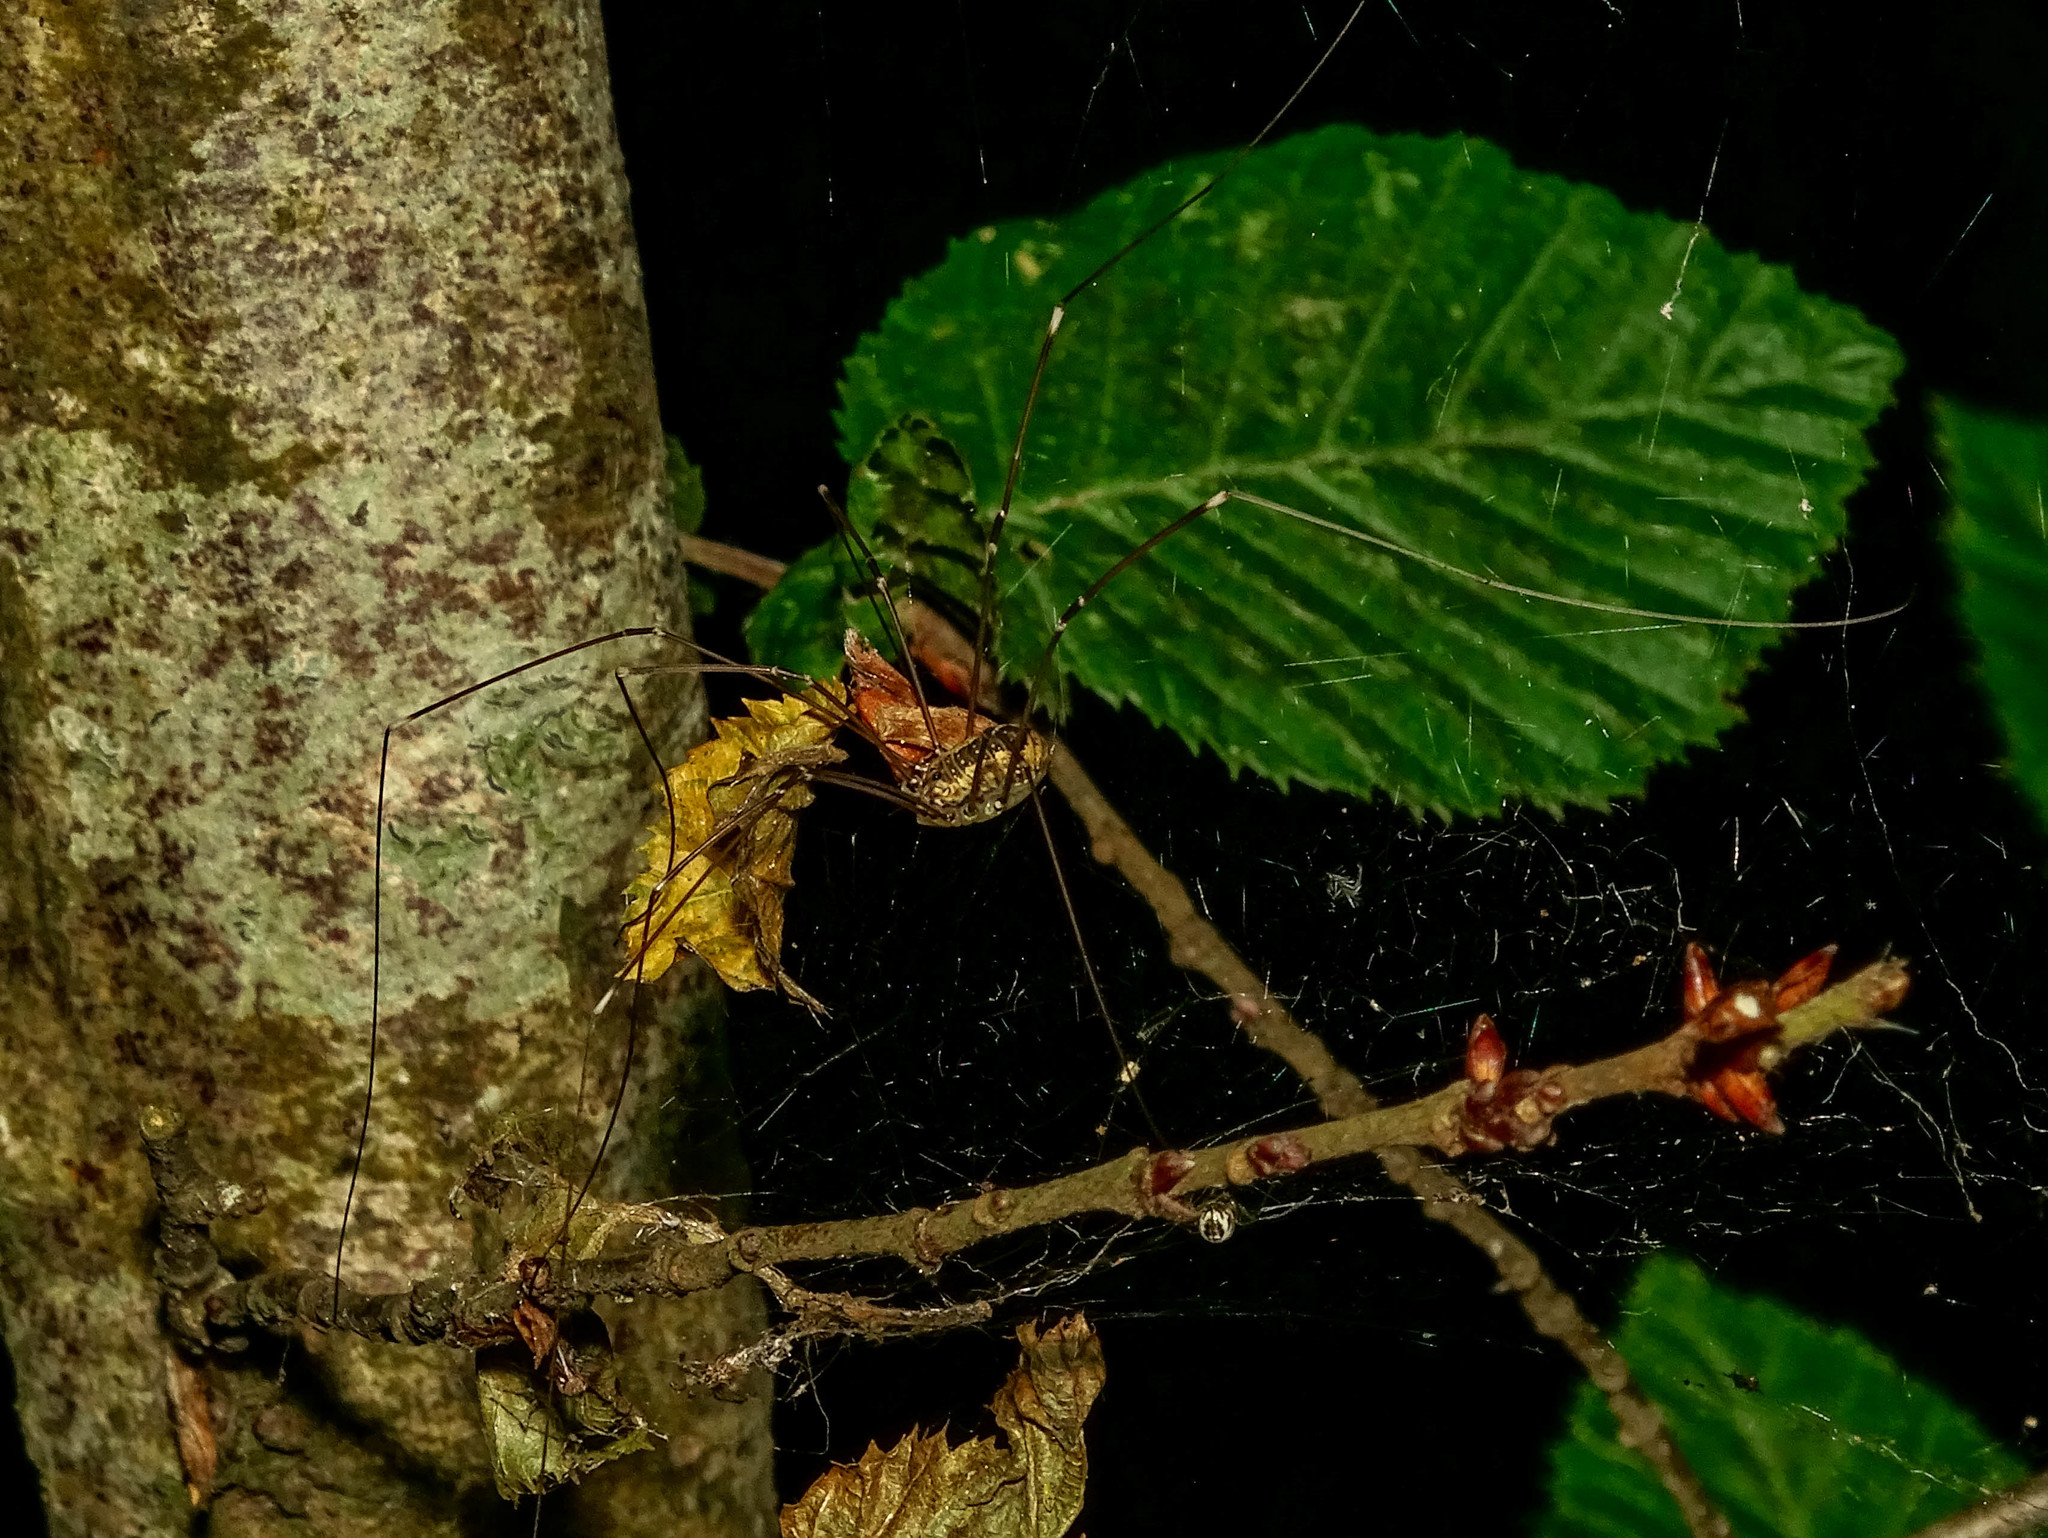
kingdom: Animalia
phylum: Arthropoda
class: Arachnida
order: Opiliones
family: Sclerosomatidae
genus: Leiobunum
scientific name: Leiobunum rotundum
